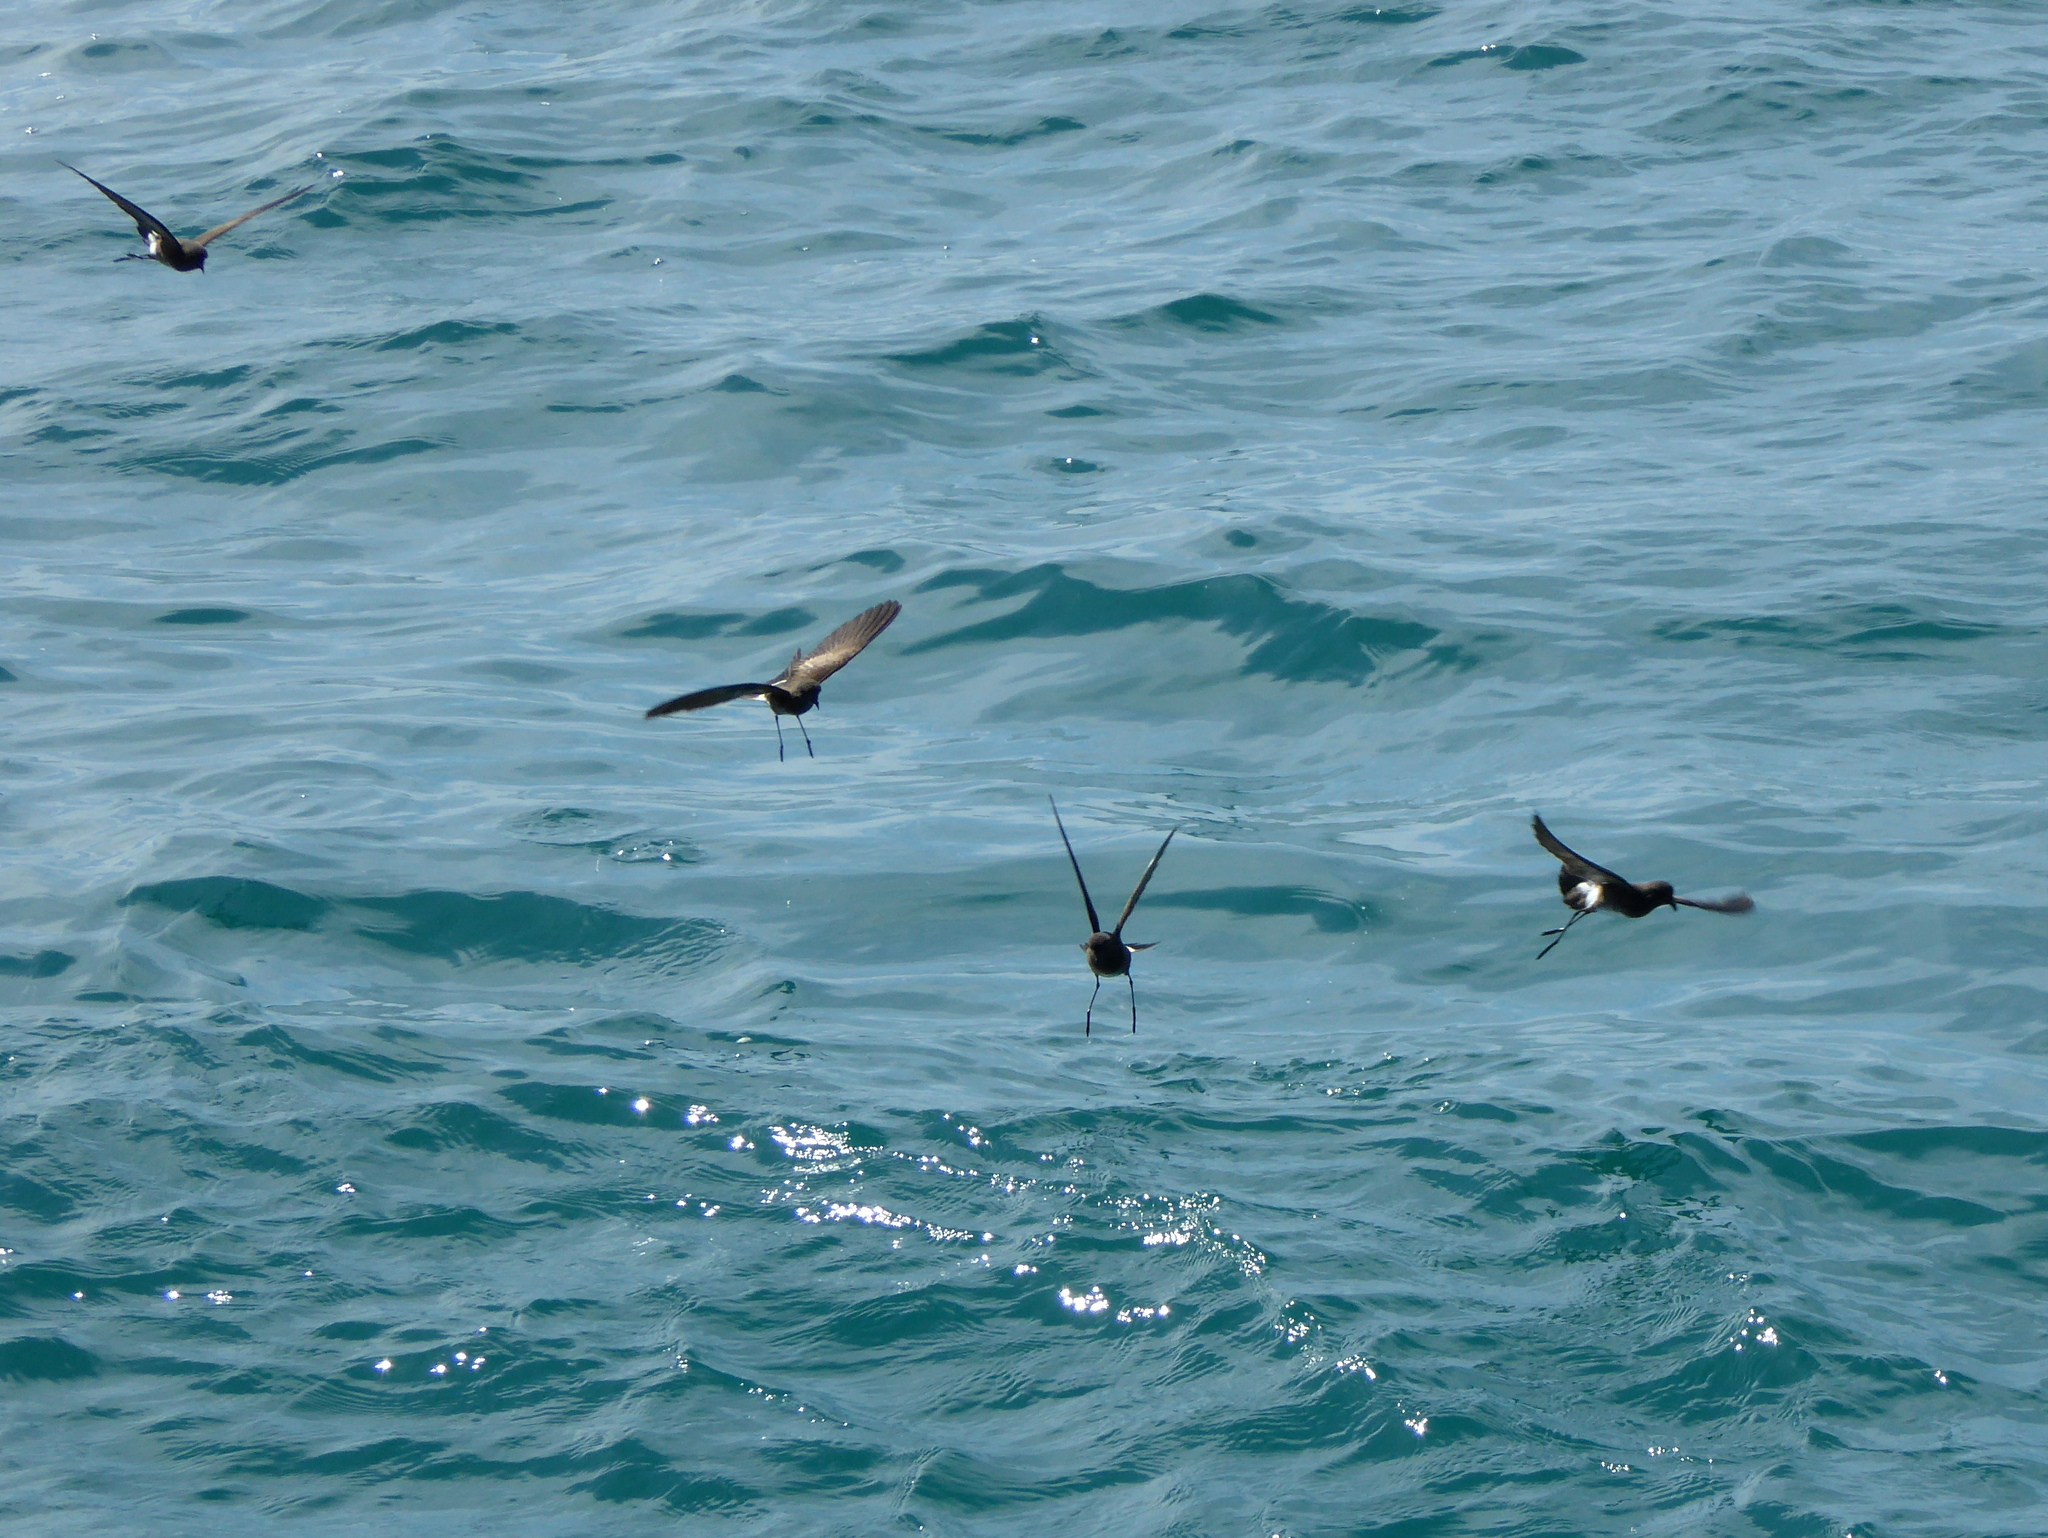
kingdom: Animalia
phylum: Chordata
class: Aves
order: Procellariiformes
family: Hydrobatidae
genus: Oceanites
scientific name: Oceanites gracilis
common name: Elliot's storm-petrel
